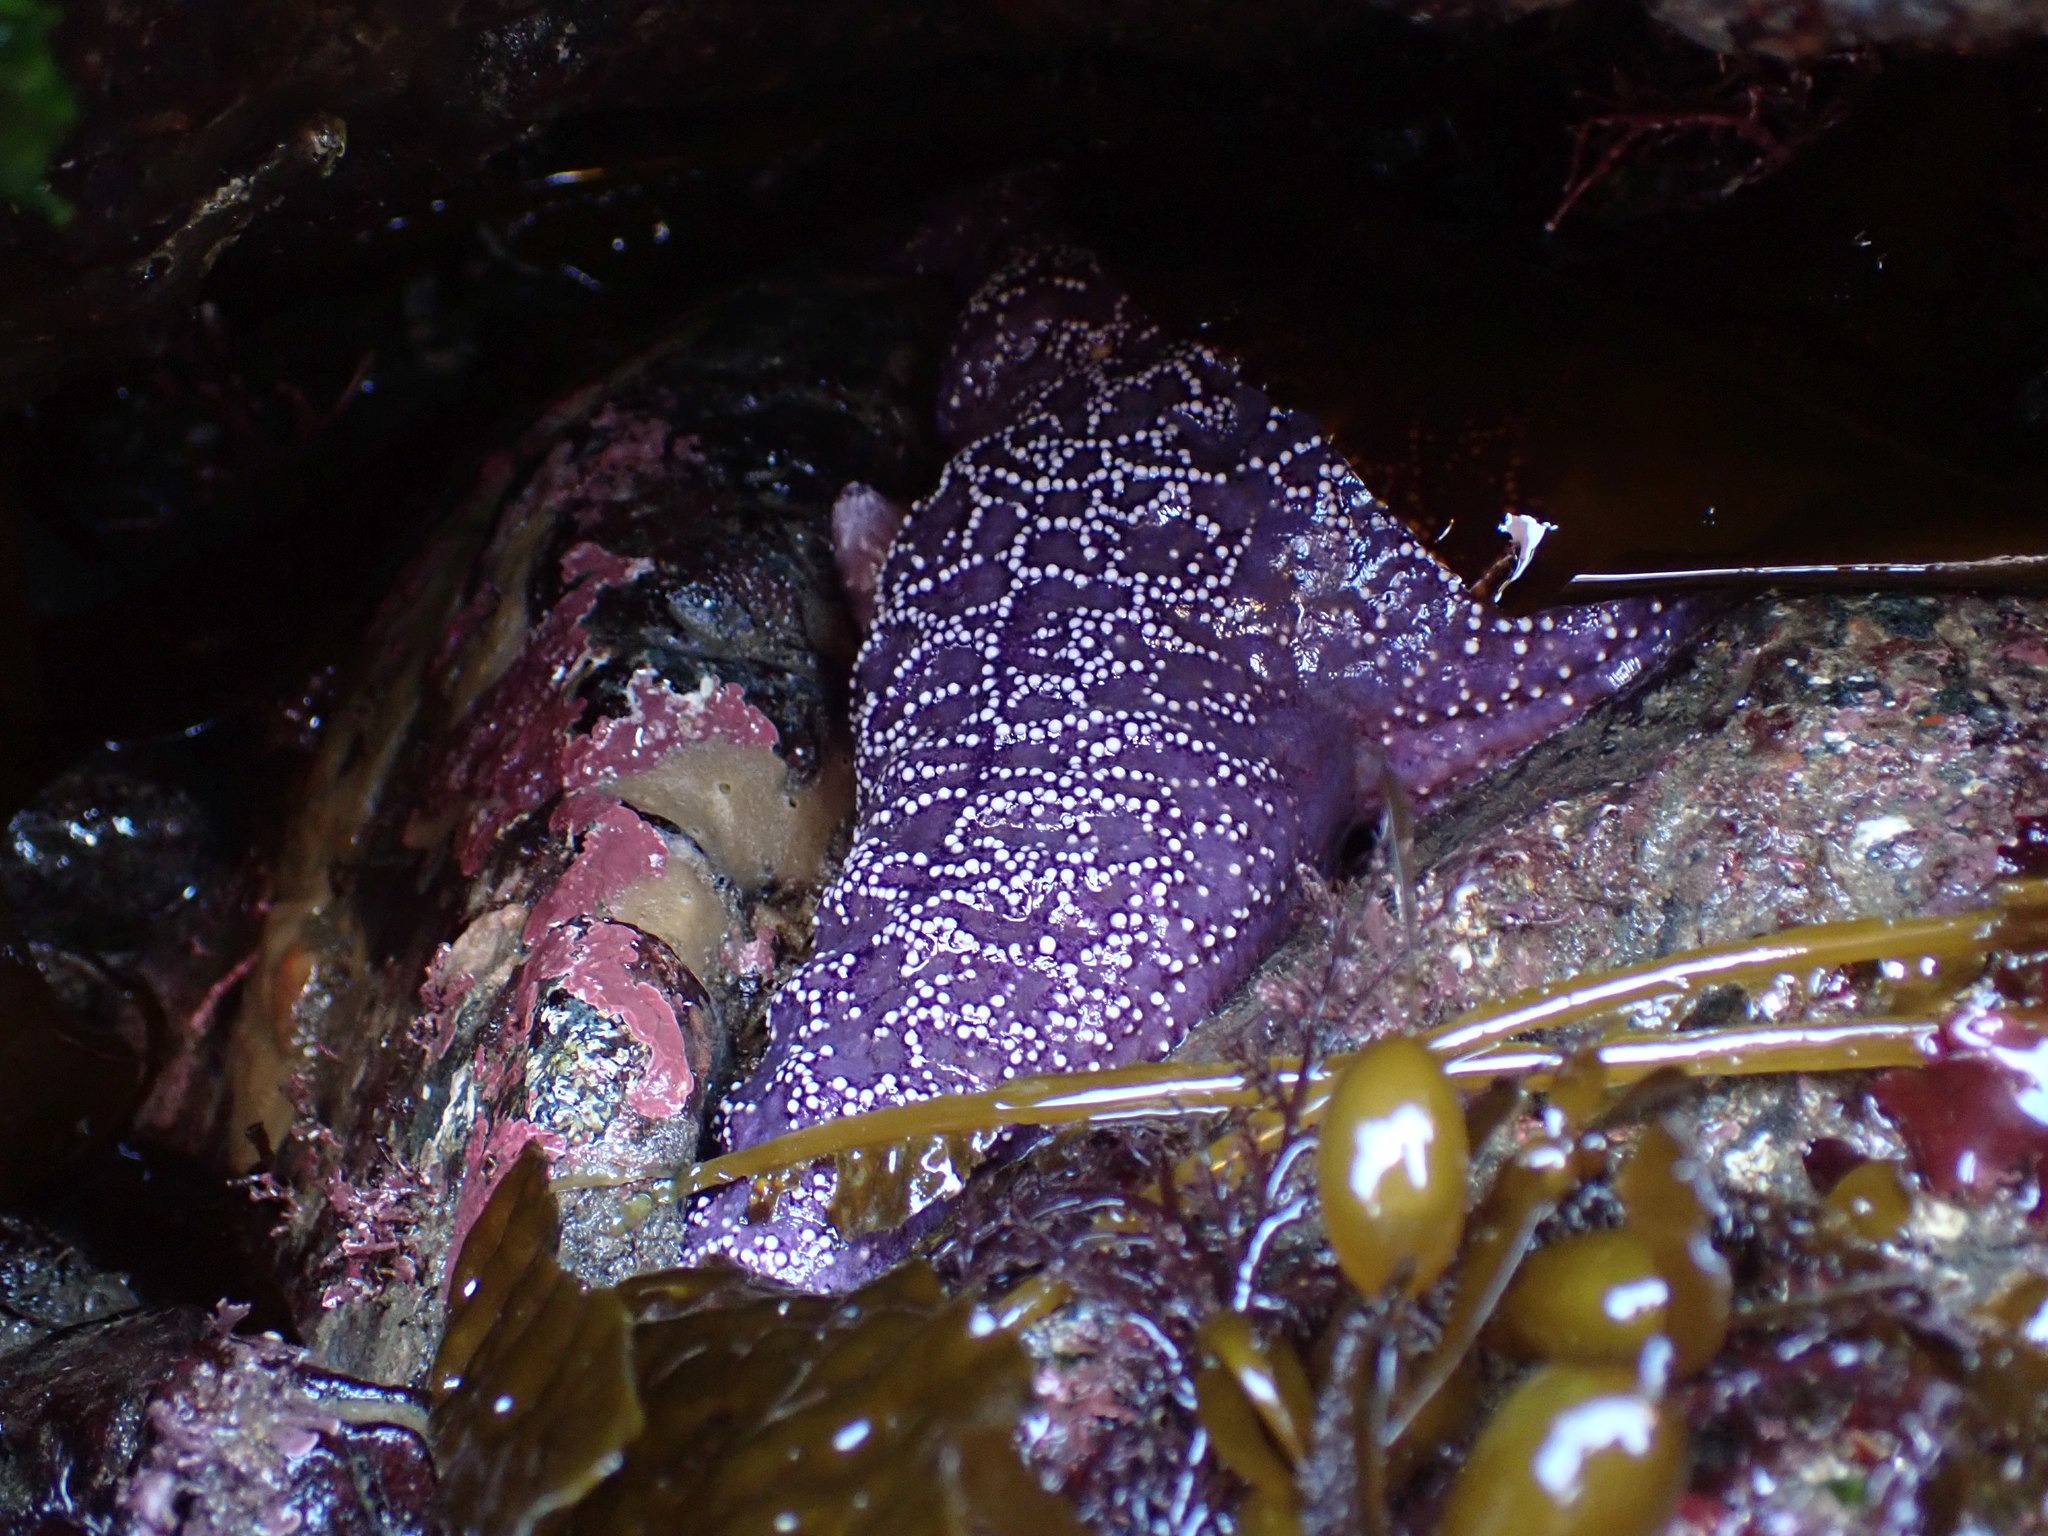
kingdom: Animalia
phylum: Echinodermata
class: Asteroidea
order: Forcipulatida
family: Asteriidae
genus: Pisaster
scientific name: Pisaster ochraceus
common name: Ochre stars
